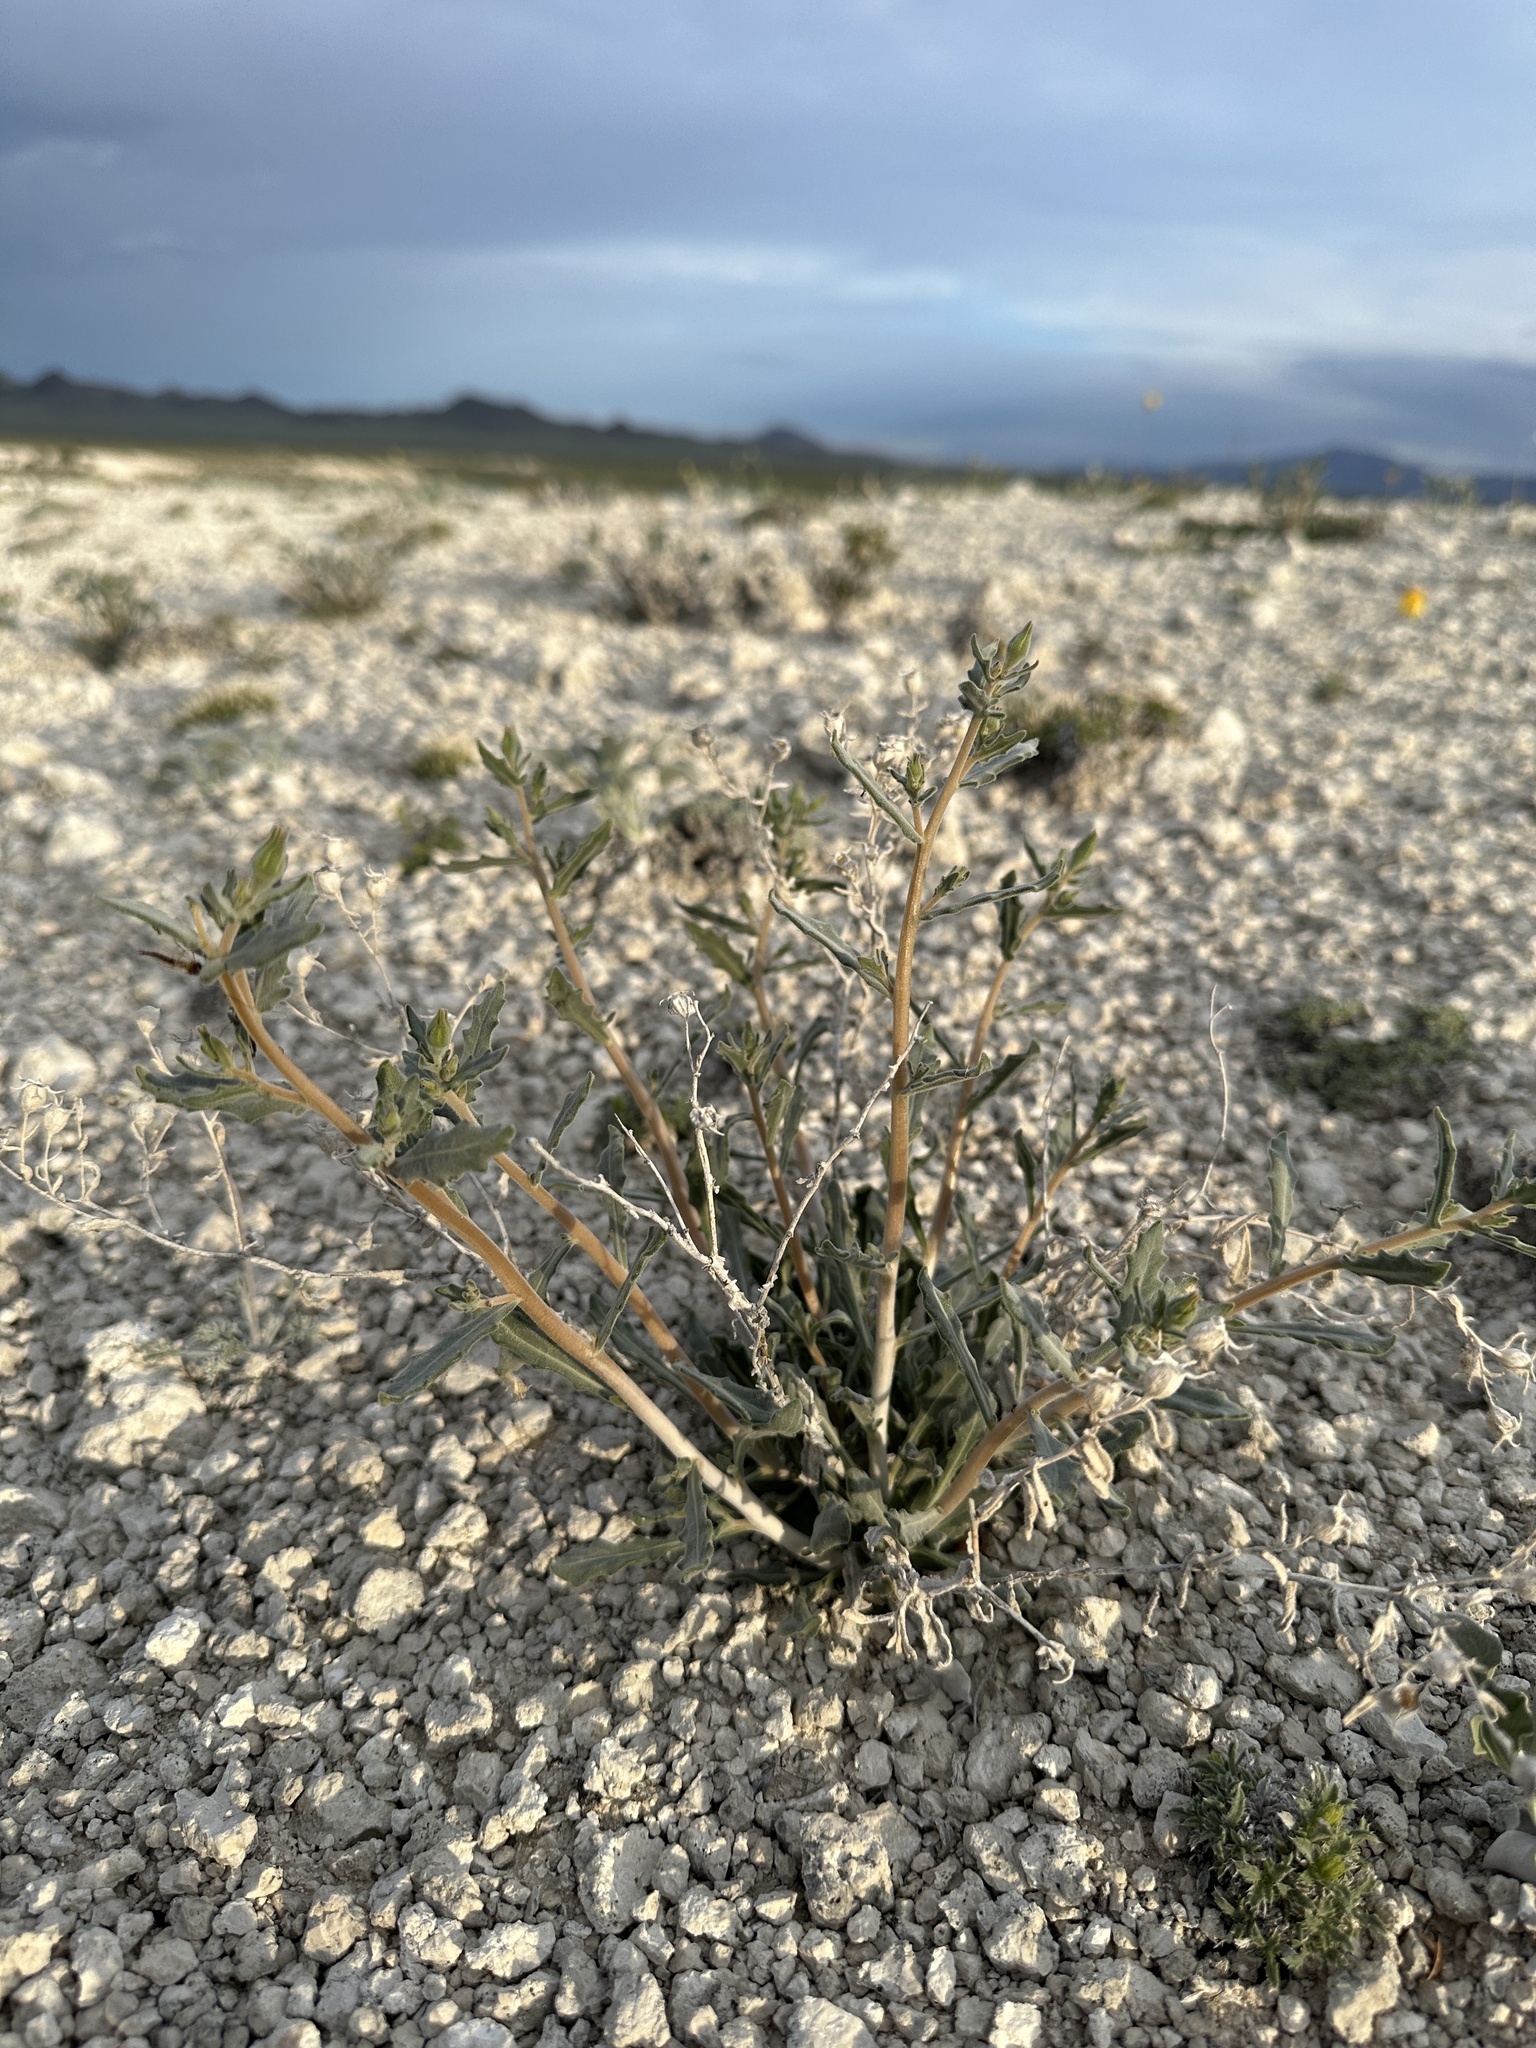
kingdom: Plantae
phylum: Tracheophyta
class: Magnoliopsida
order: Cornales
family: Loasaceae
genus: Mentzelia
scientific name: Mentzelia tiehmii
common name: Tiehm's blazing star
